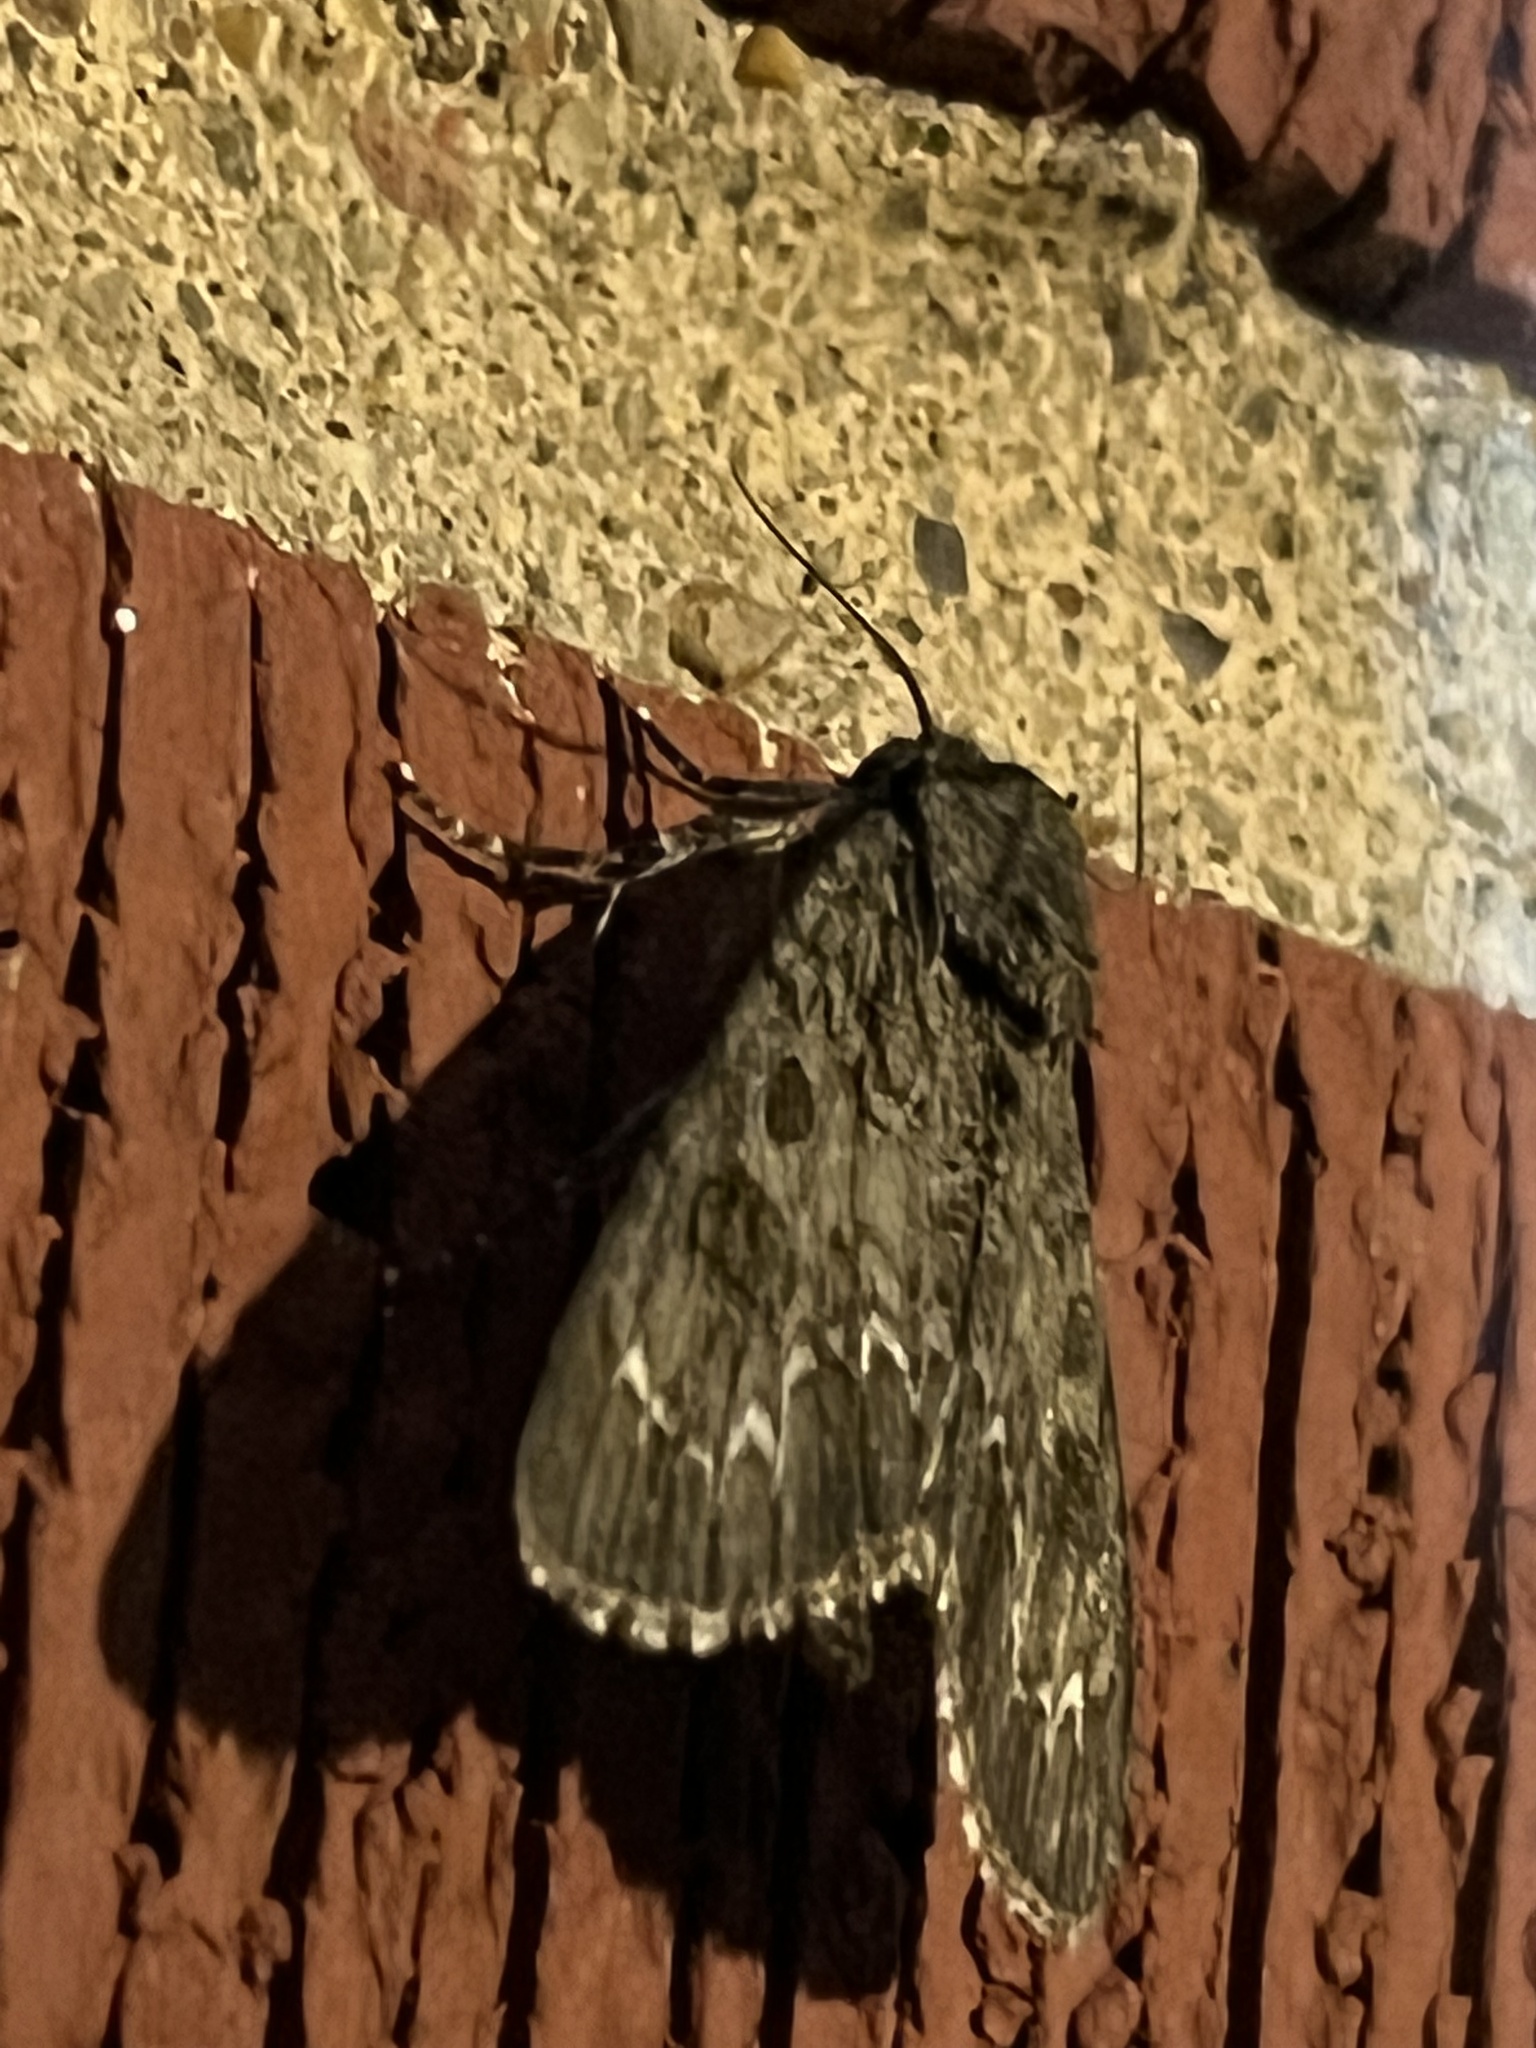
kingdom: Animalia
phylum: Arthropoda
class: Insecta
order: Lepidoptera
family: Noctuidae
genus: Acronicta
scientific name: Acronicta americana
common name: American dagger
